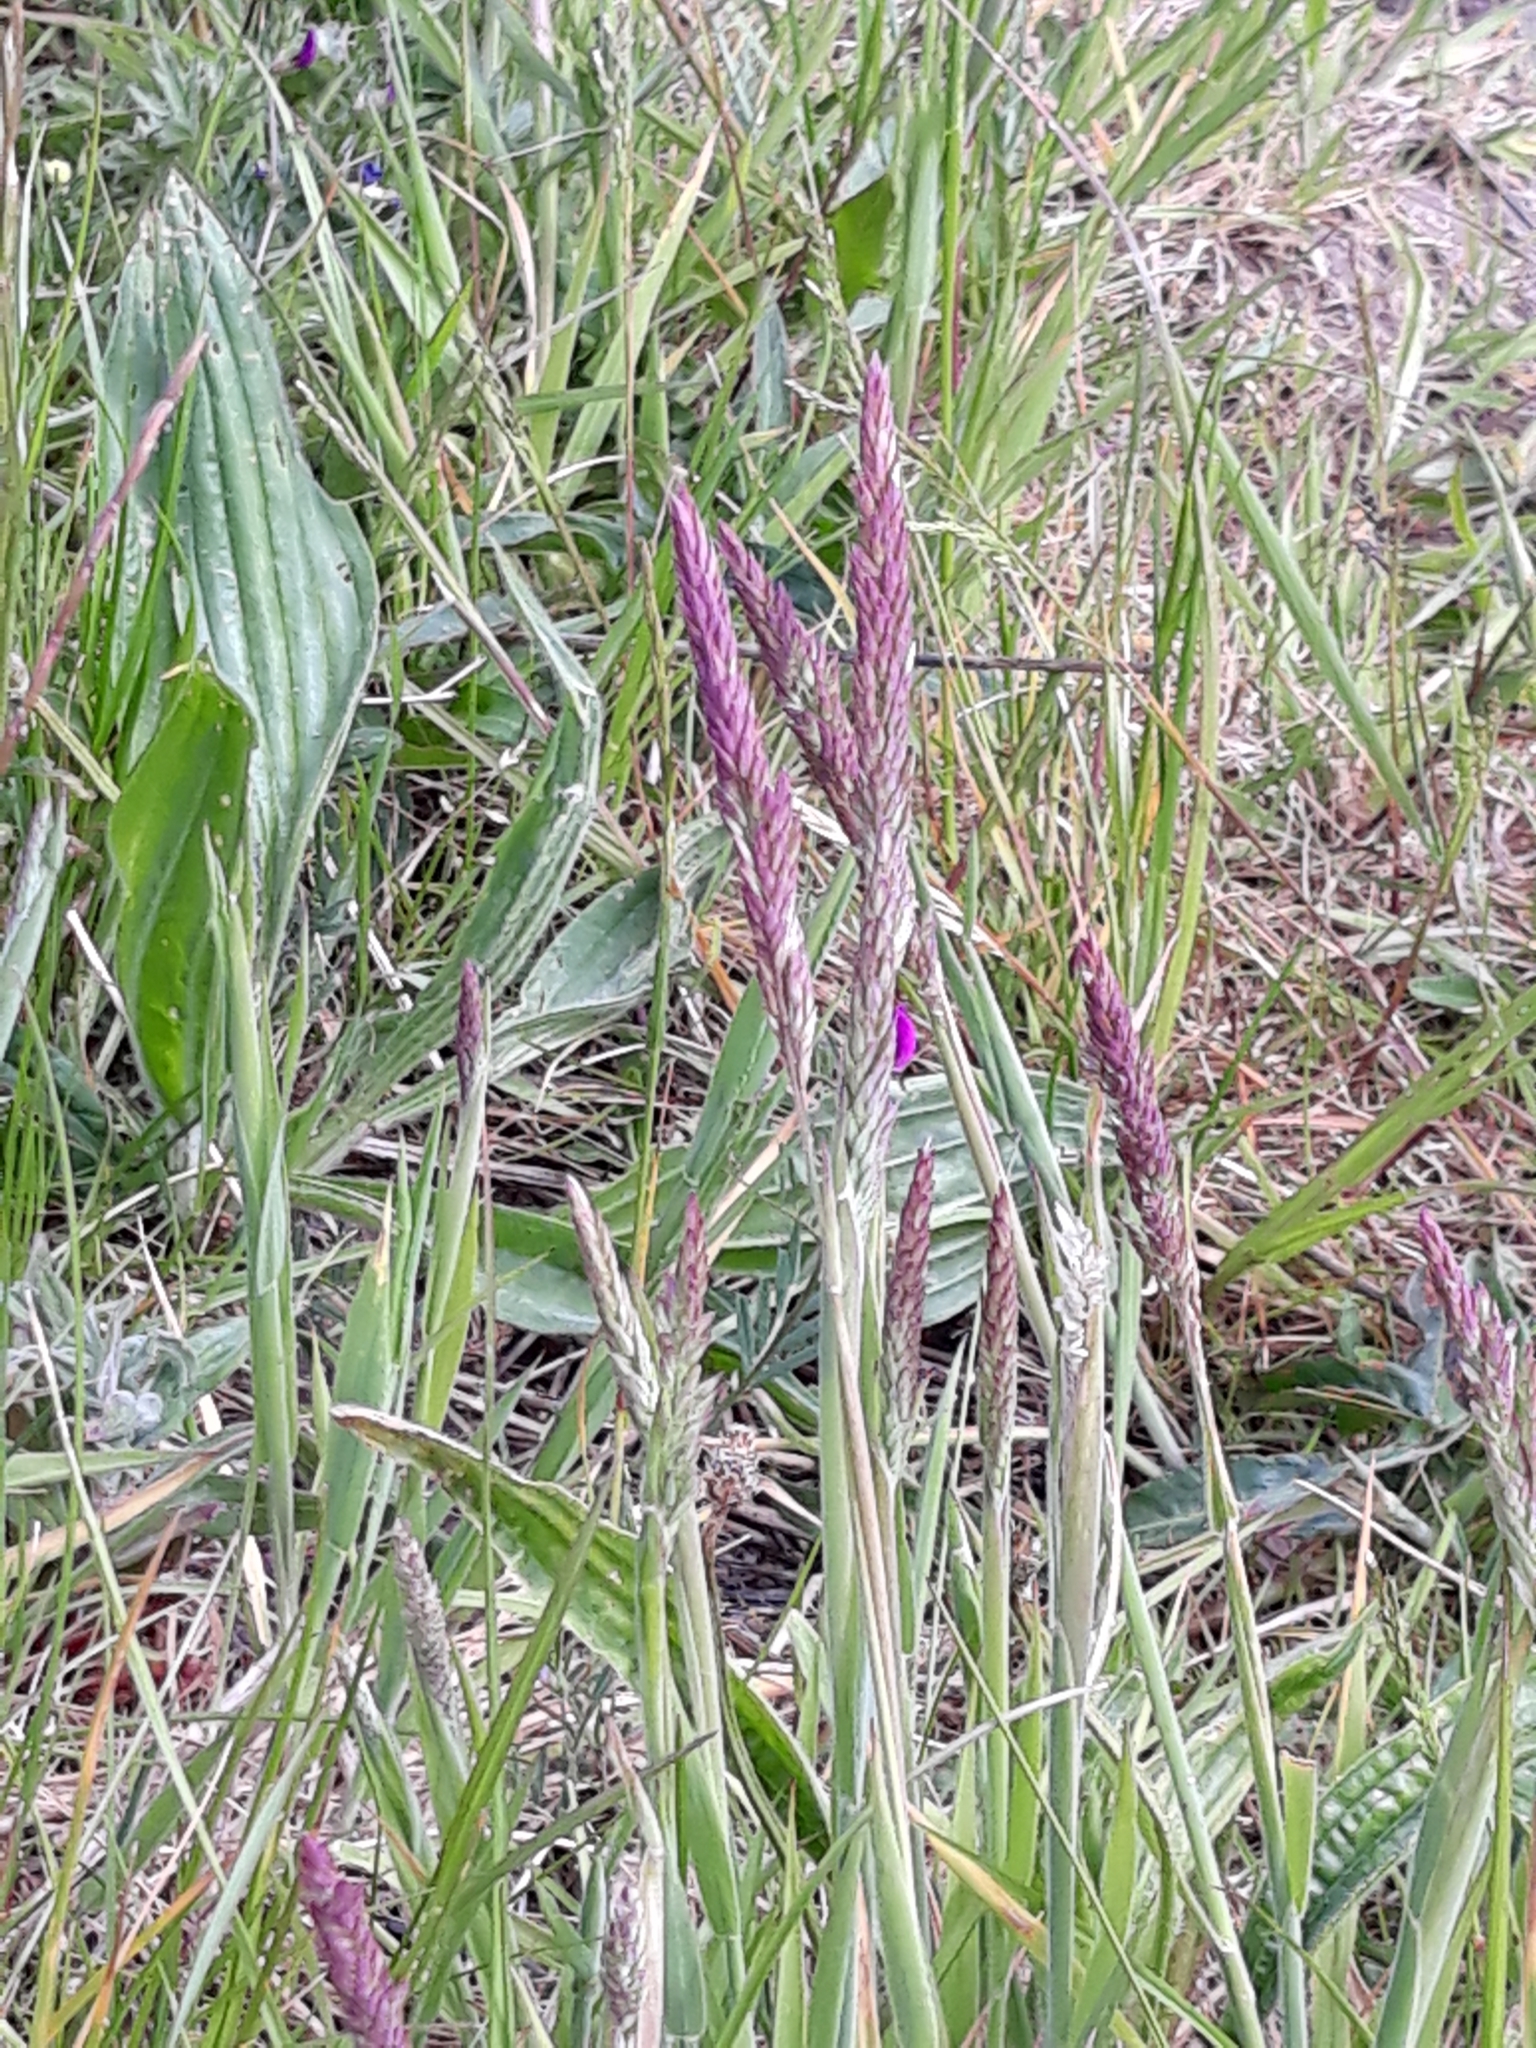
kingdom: Plantae
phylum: Tracheophyta
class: Liliopsida
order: Poales
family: Poaceae
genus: Holcus
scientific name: Holcus lanatus
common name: Yorkshire-fog
